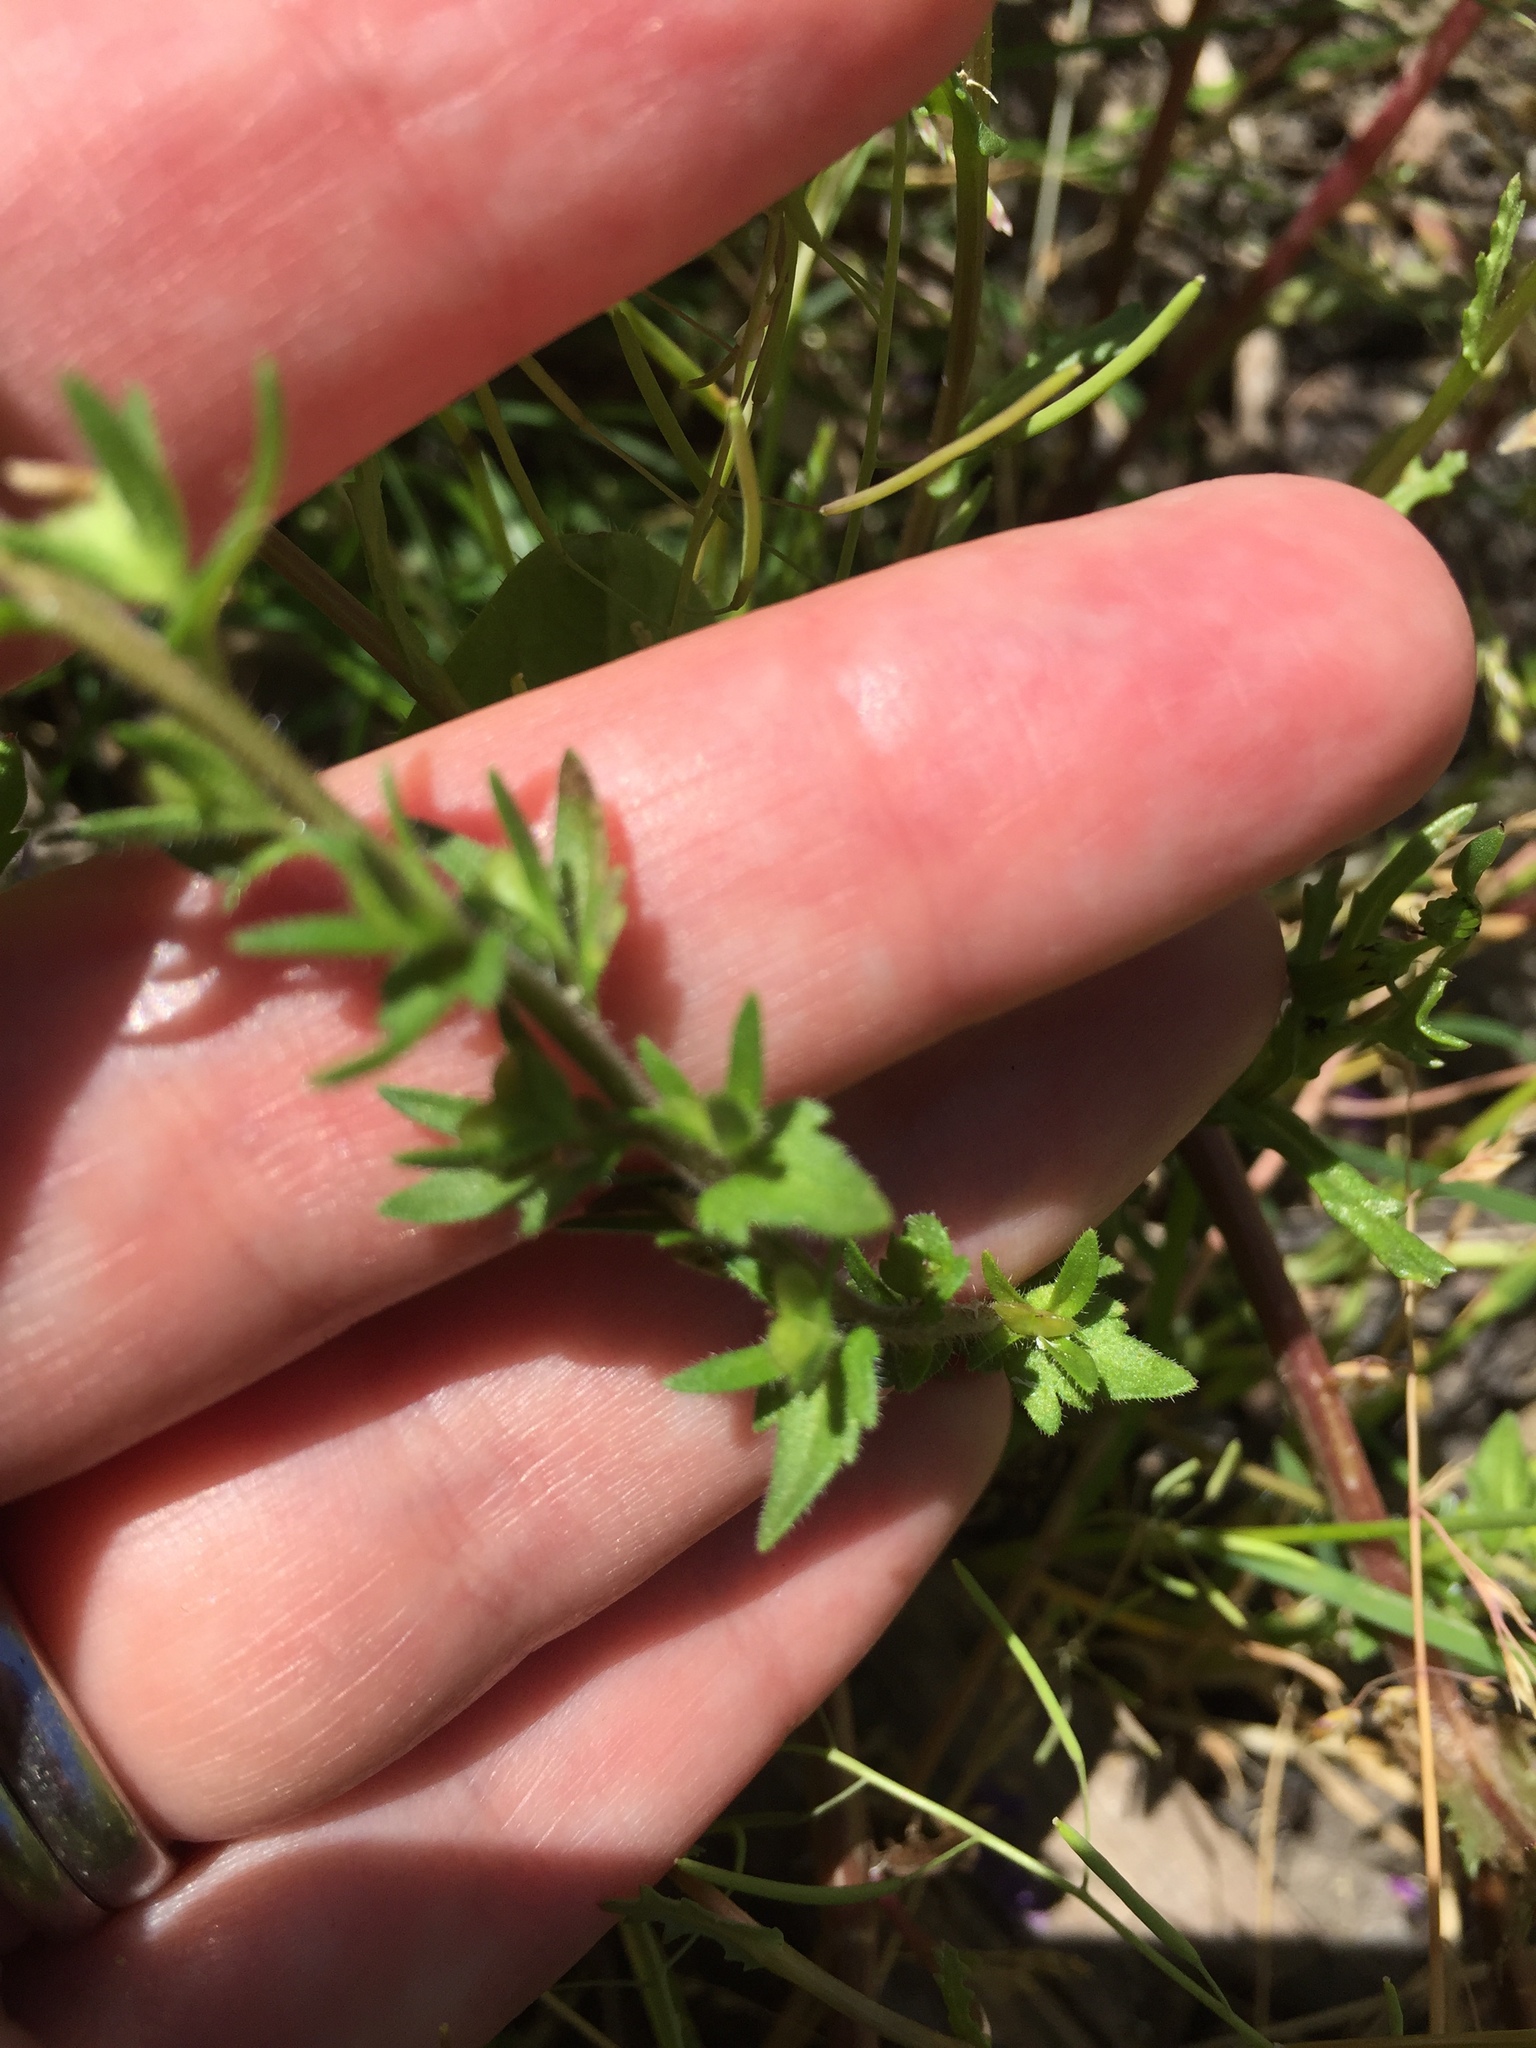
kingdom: Plantae
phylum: Tracheophyta
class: Magnoliopsida
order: Lamiales
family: Plantaginaceae
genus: Veronica
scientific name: Veronica arvensis
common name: Corn speedwell
